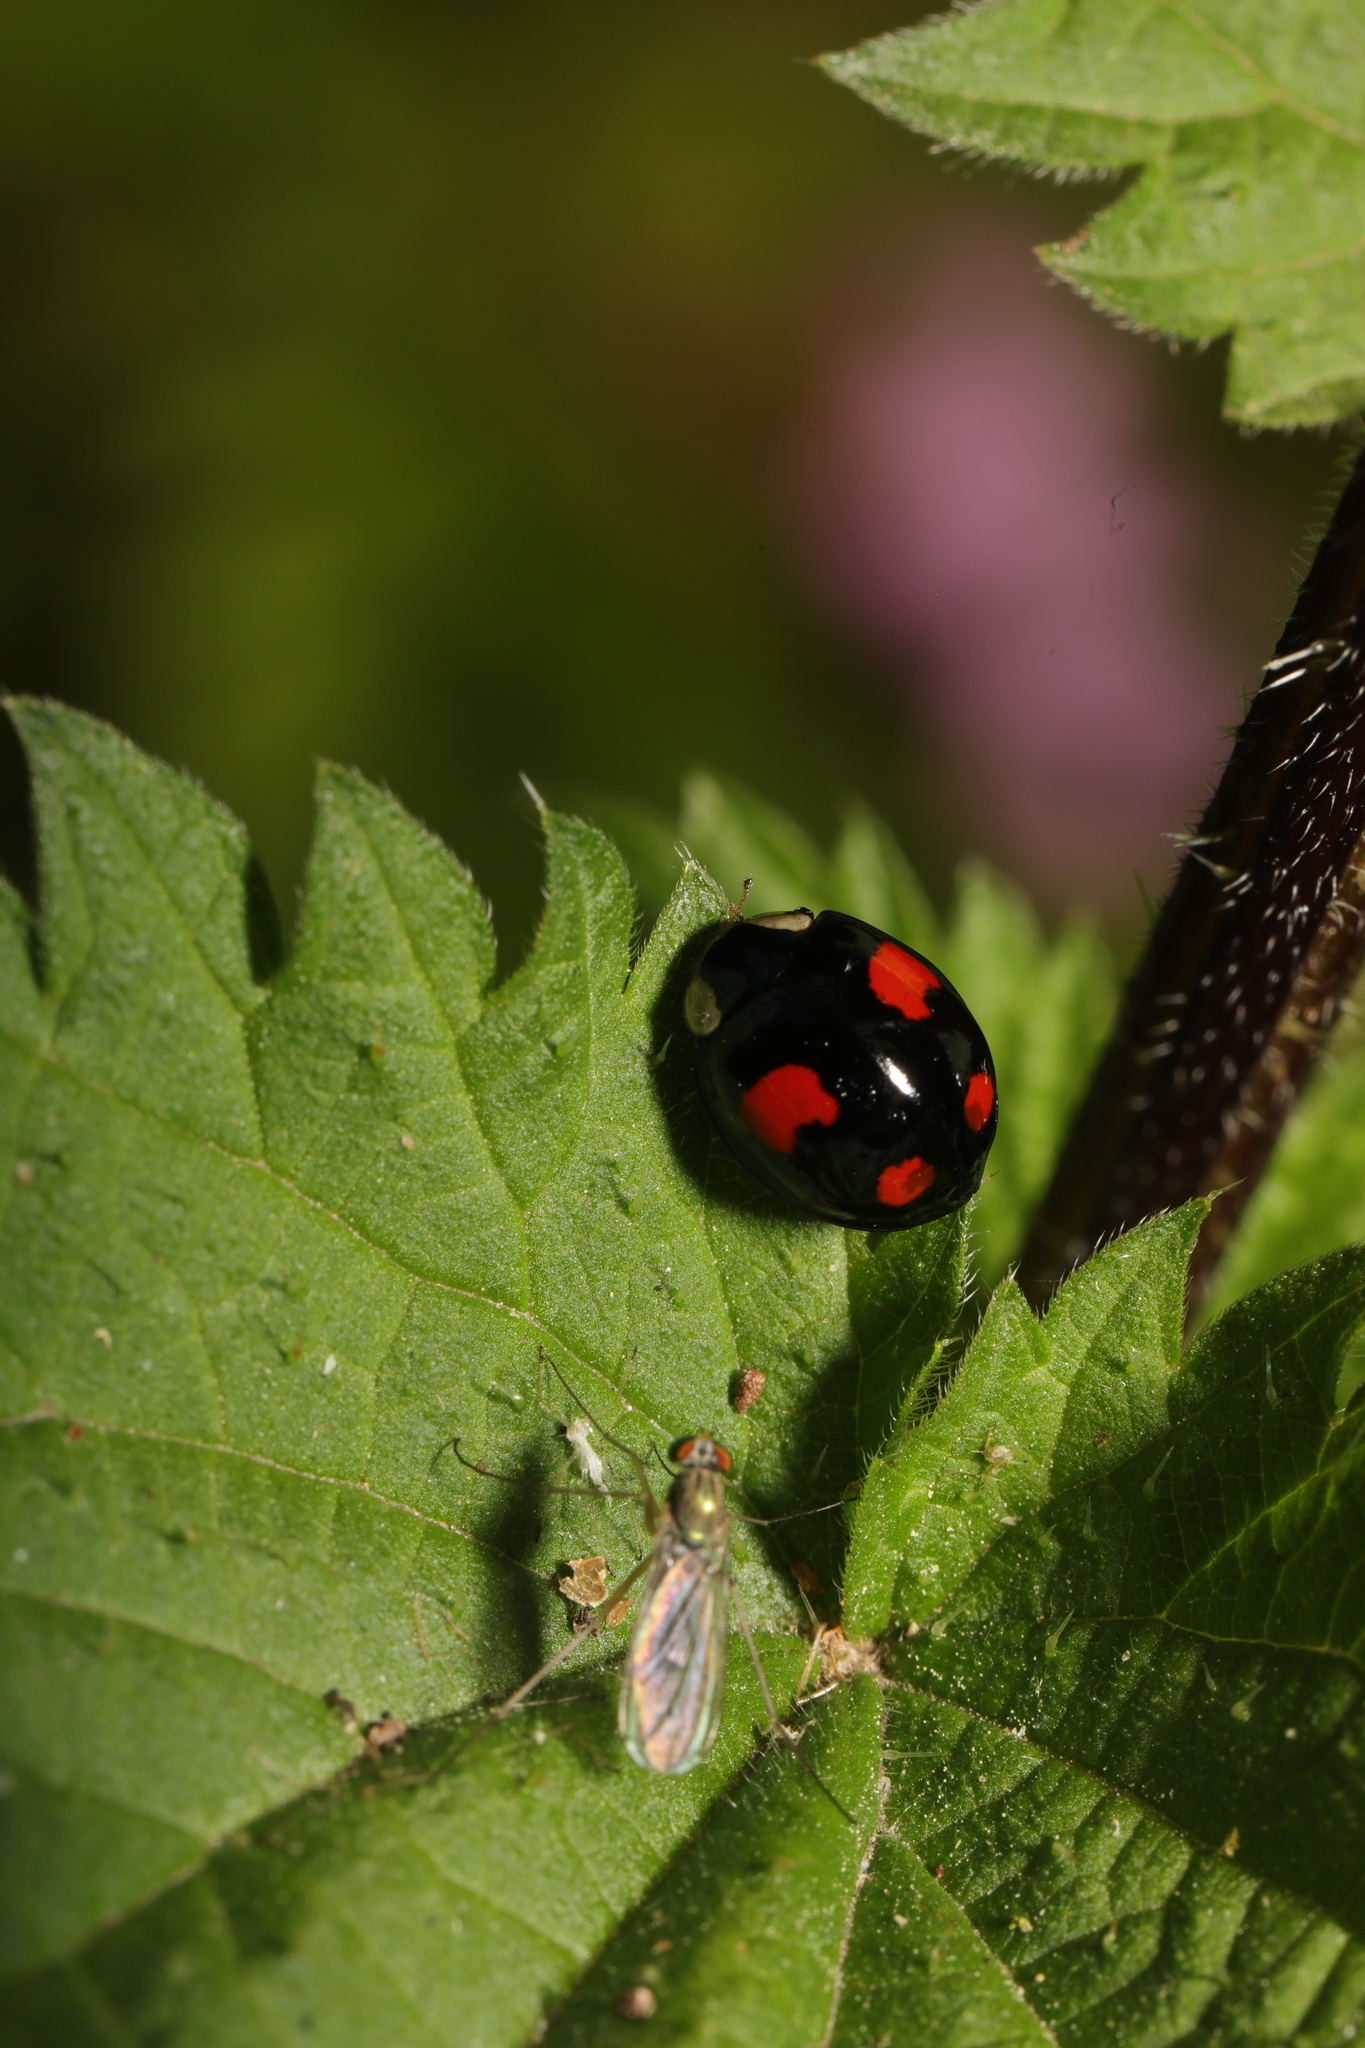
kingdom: Animalia
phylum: Arthropoda
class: Insecta
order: Coleoptera
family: Coccinellidae
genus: Harmonia
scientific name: Harmonia axyridis
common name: Harlequin ladybird
